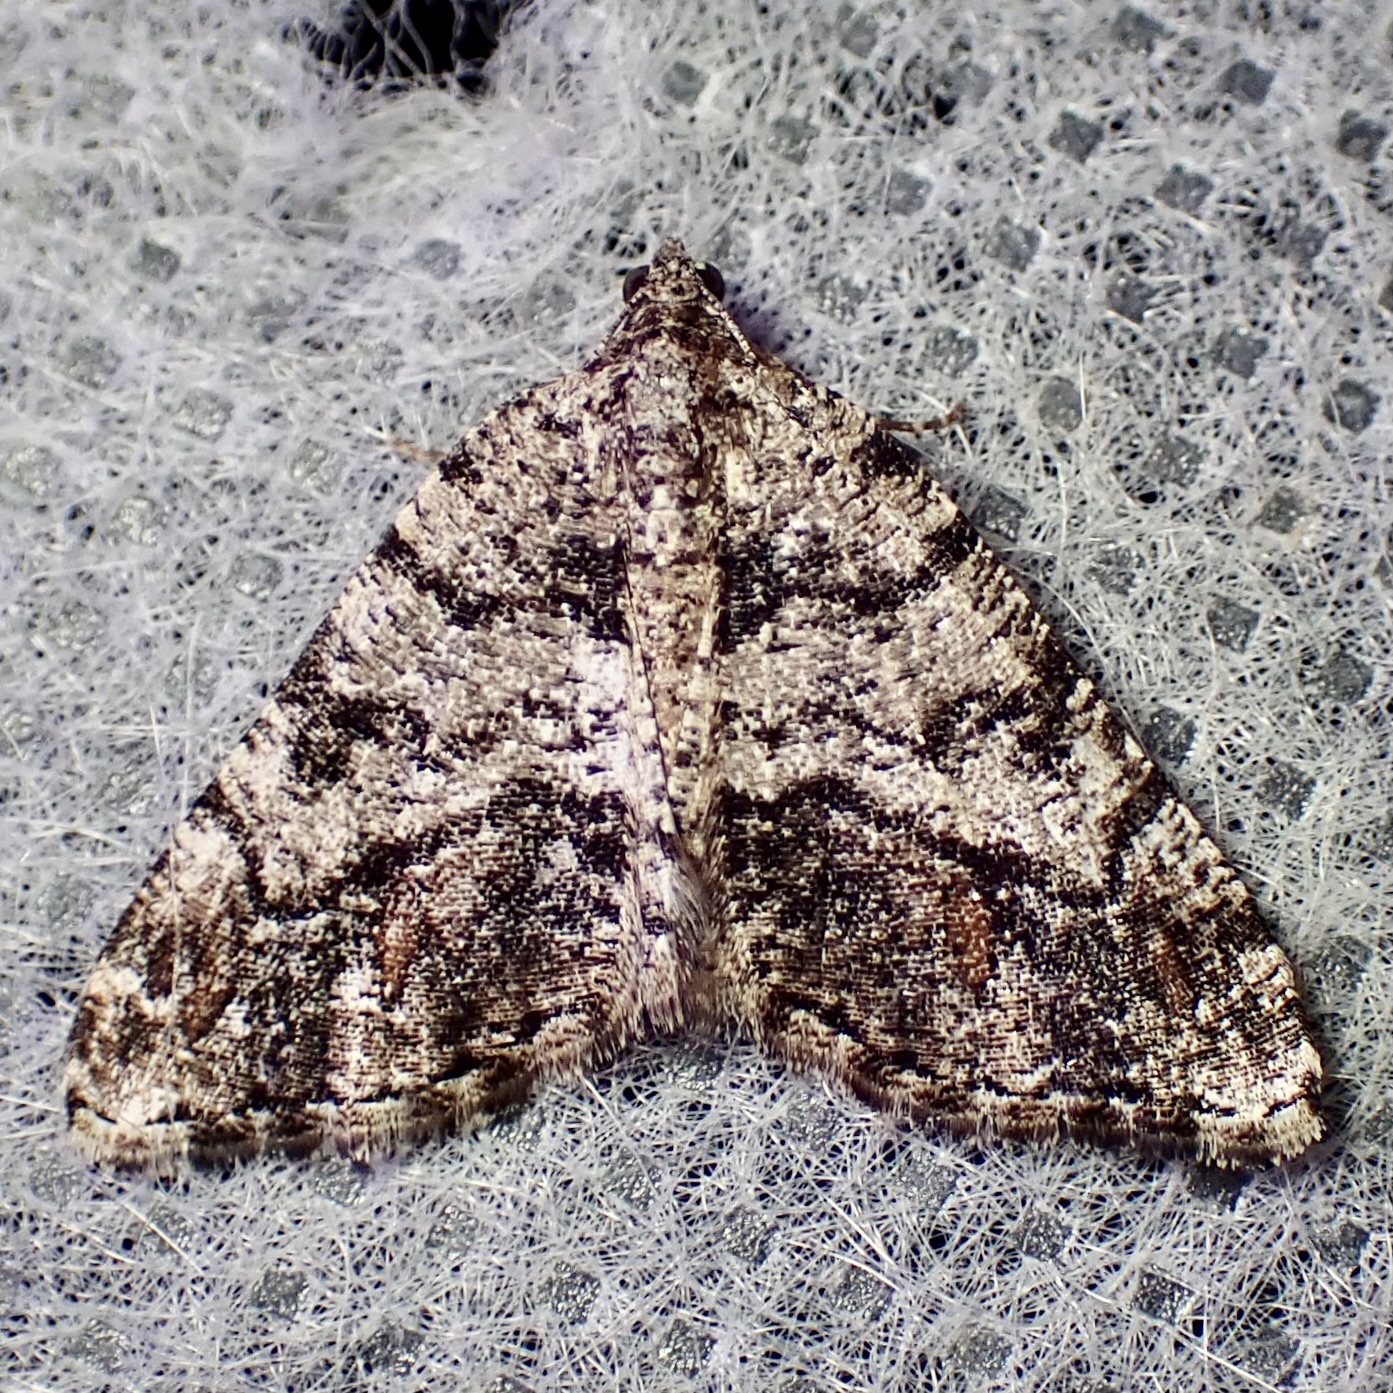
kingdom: Animalia
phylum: Arthropoda
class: Insecta
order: Lepidoptera
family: Geometridae
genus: Macaria
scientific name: Macaria deceptrix
